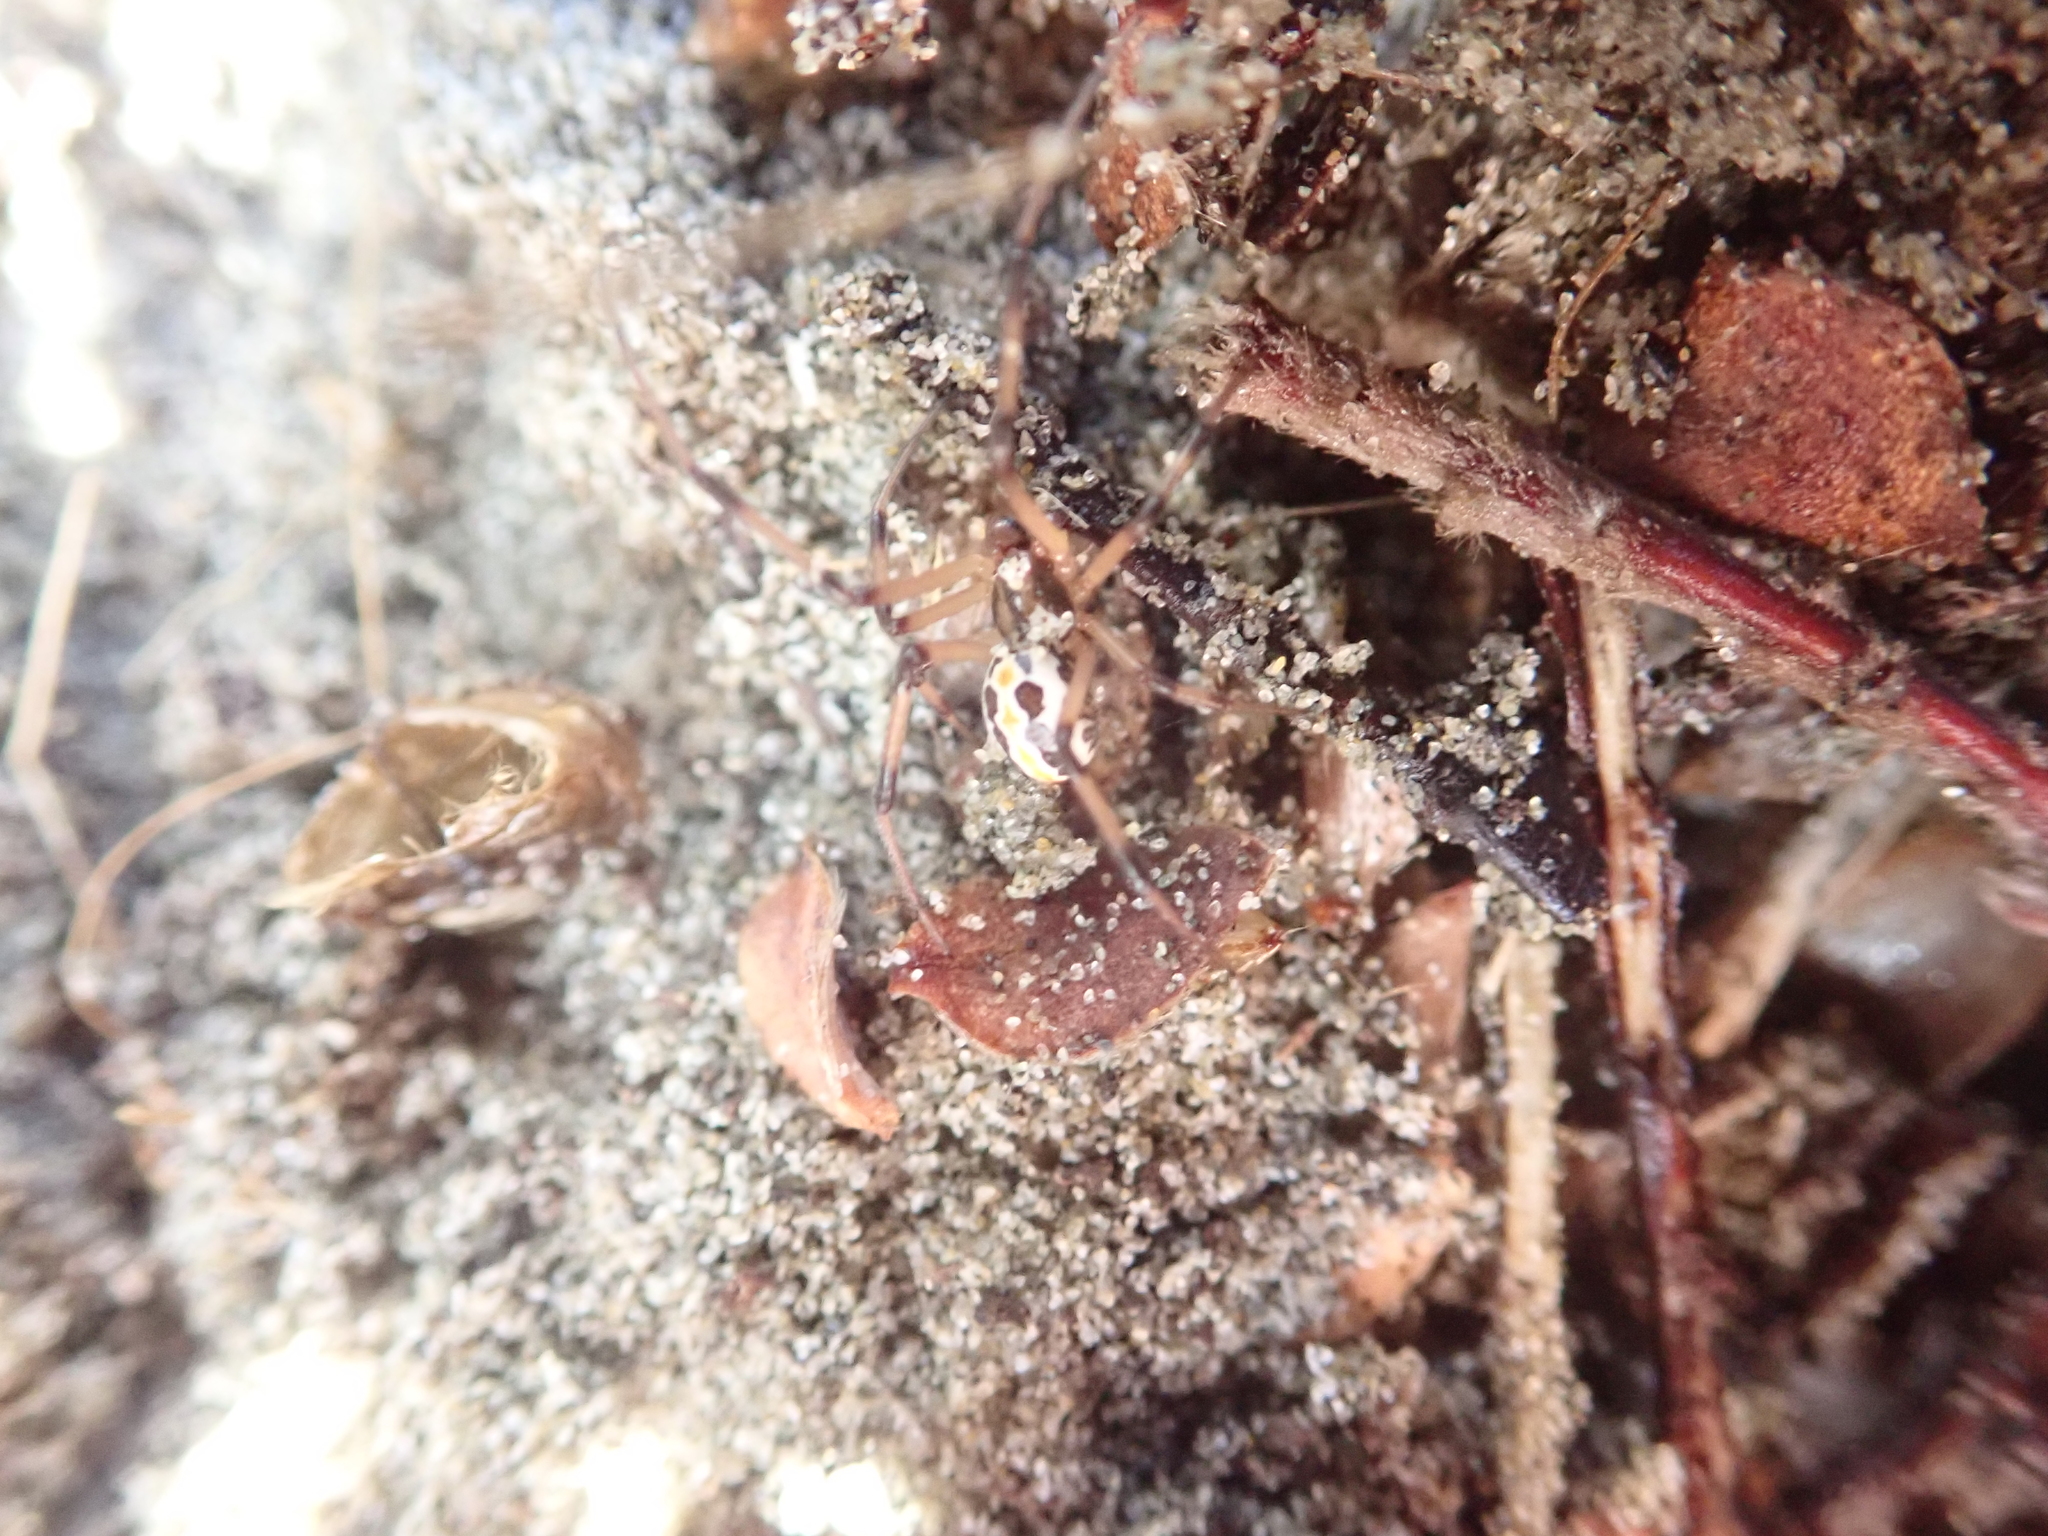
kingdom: Animalia
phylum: Arthropoda
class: Arachnida
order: Araneae
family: Theridiidae
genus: Latrodectus
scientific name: Latrodectus katipo
